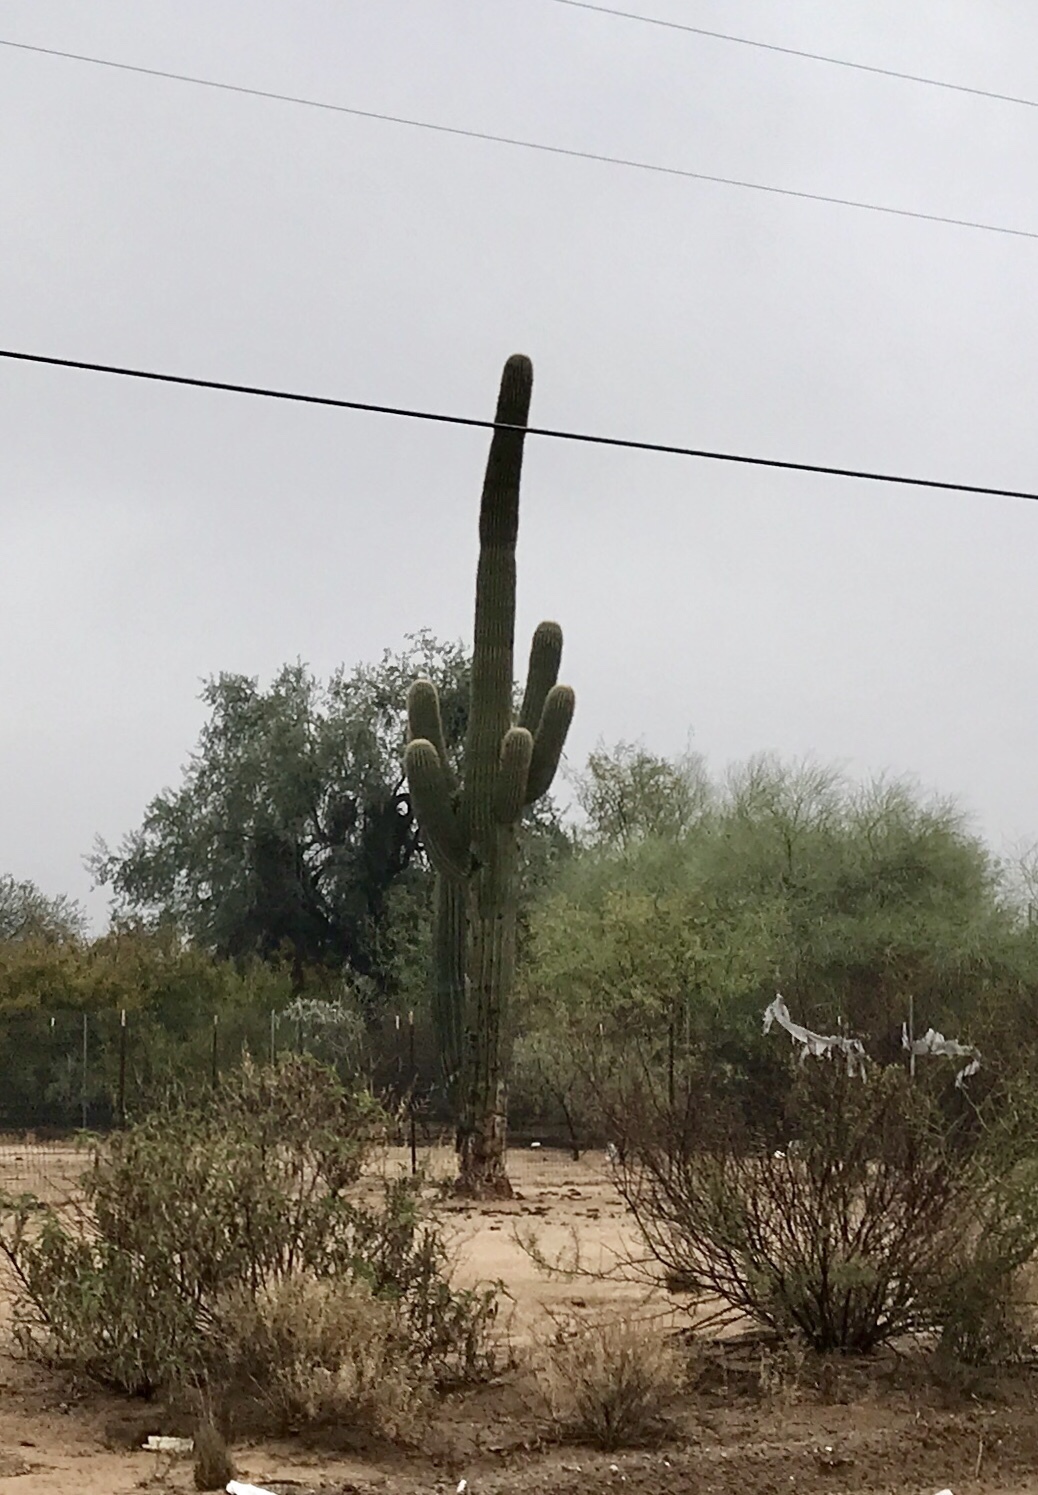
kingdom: Plantae
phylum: Tracheophyta
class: Magnoliopsida
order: Caryophyllales
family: Cactaceae
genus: Carnegiea
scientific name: Carnegiea gigantea
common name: Saguaro
